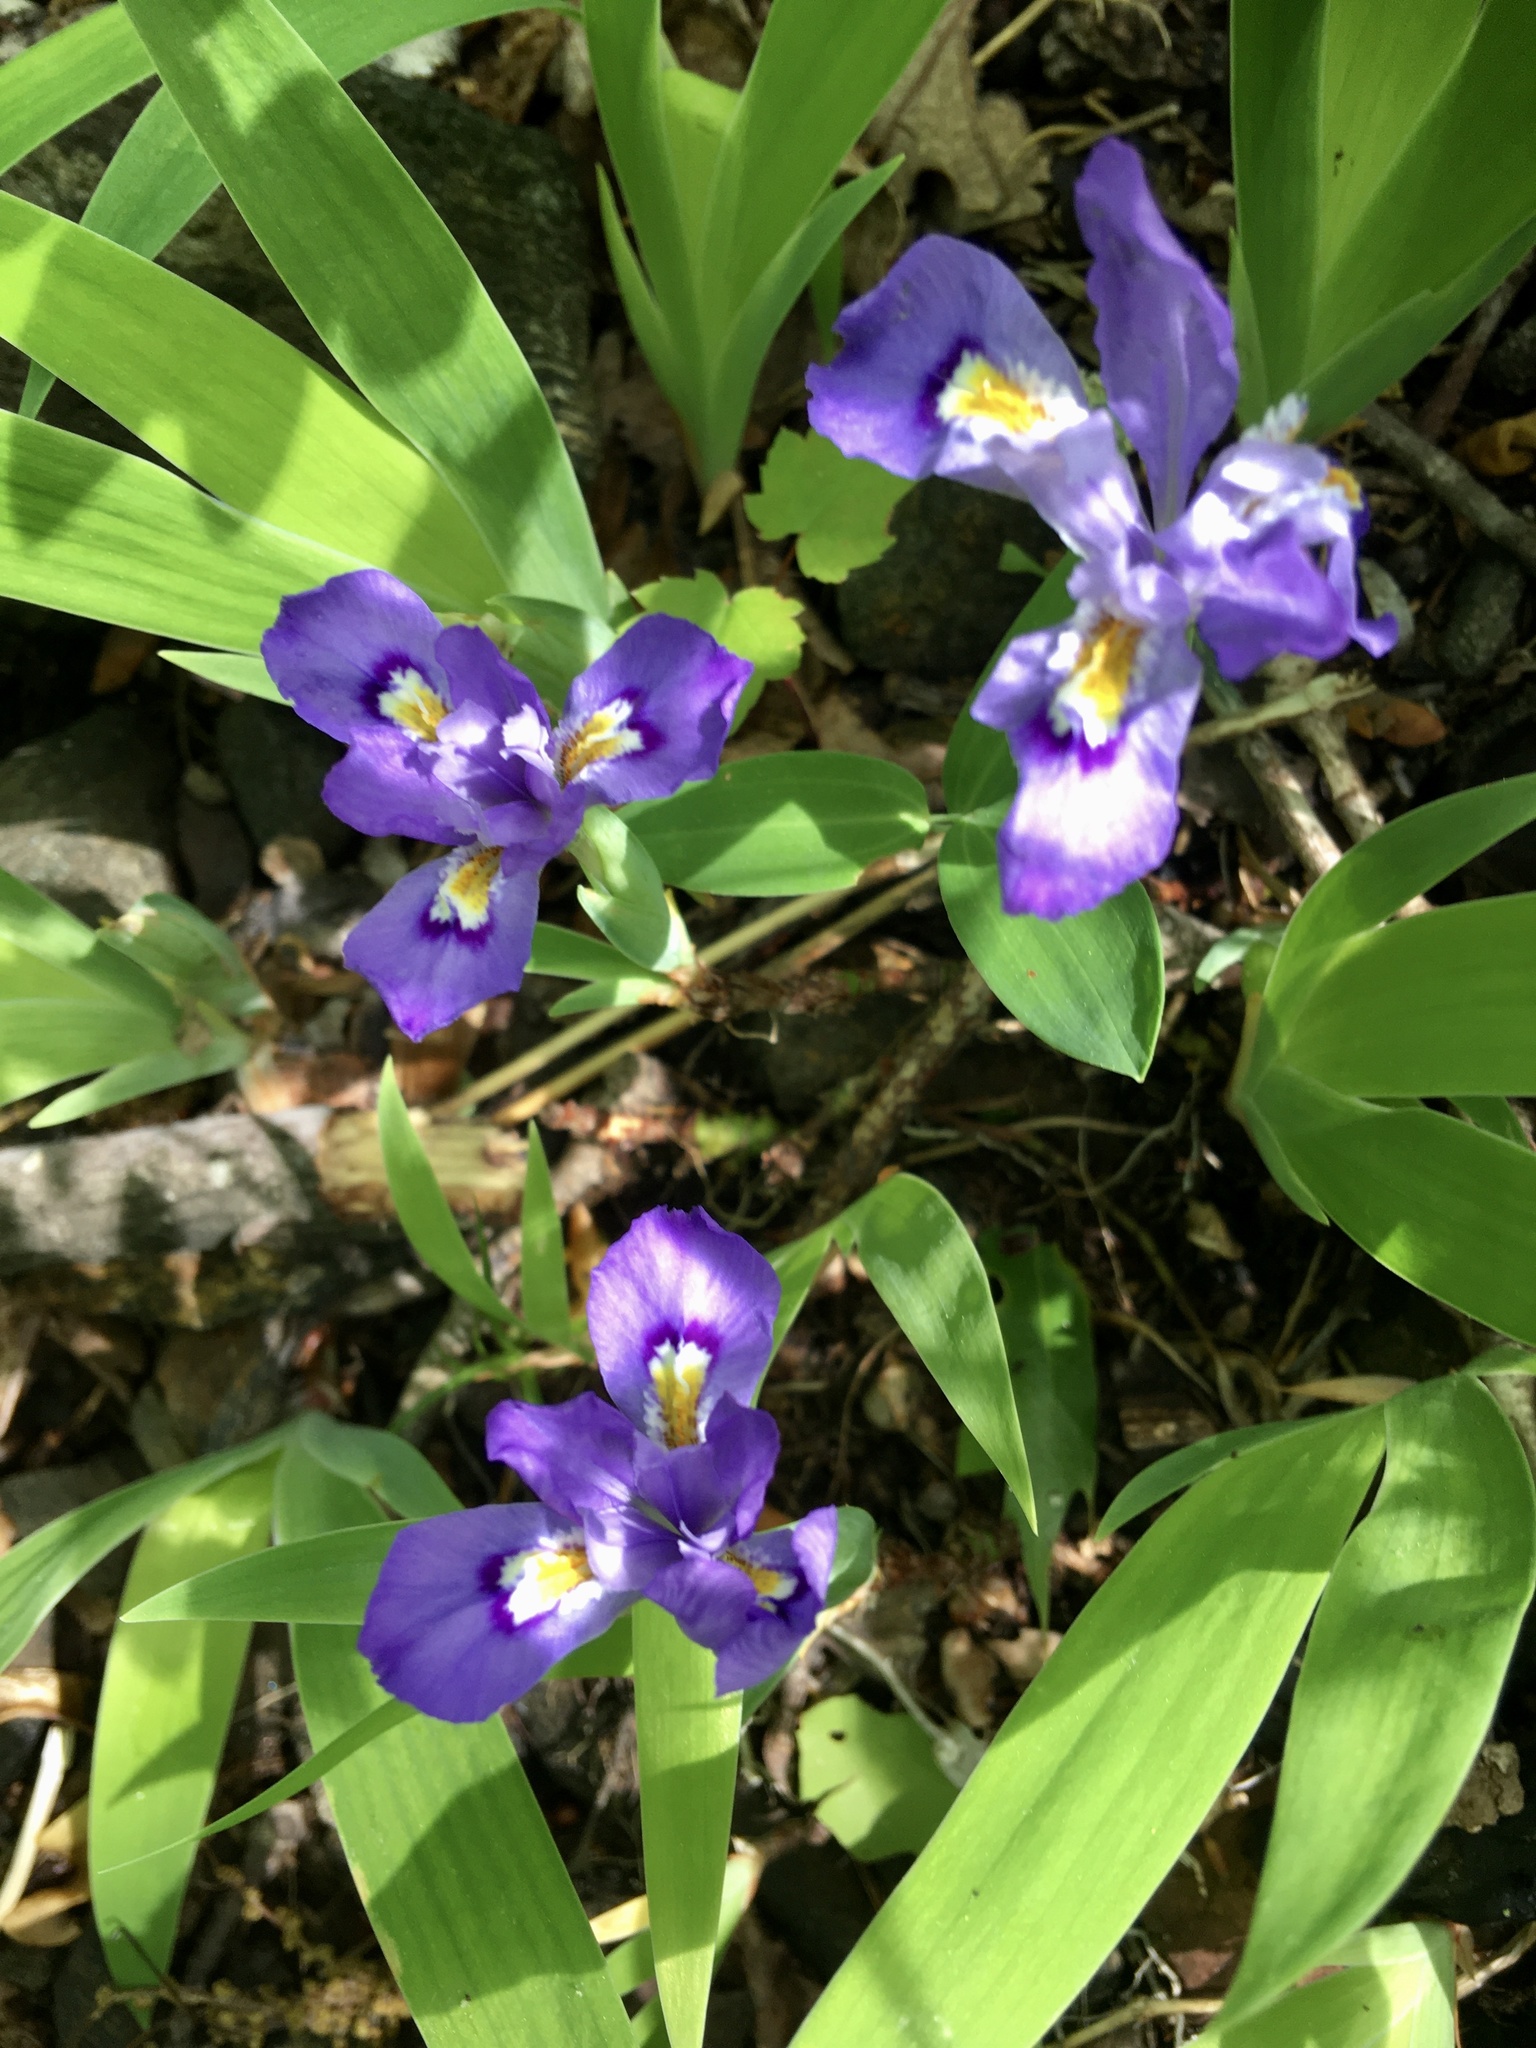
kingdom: Plantae
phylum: Tracheophyta
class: Liliopsida
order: Asparagales
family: Iridaceae
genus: Iris
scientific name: Iris cristata
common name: Crested iris
